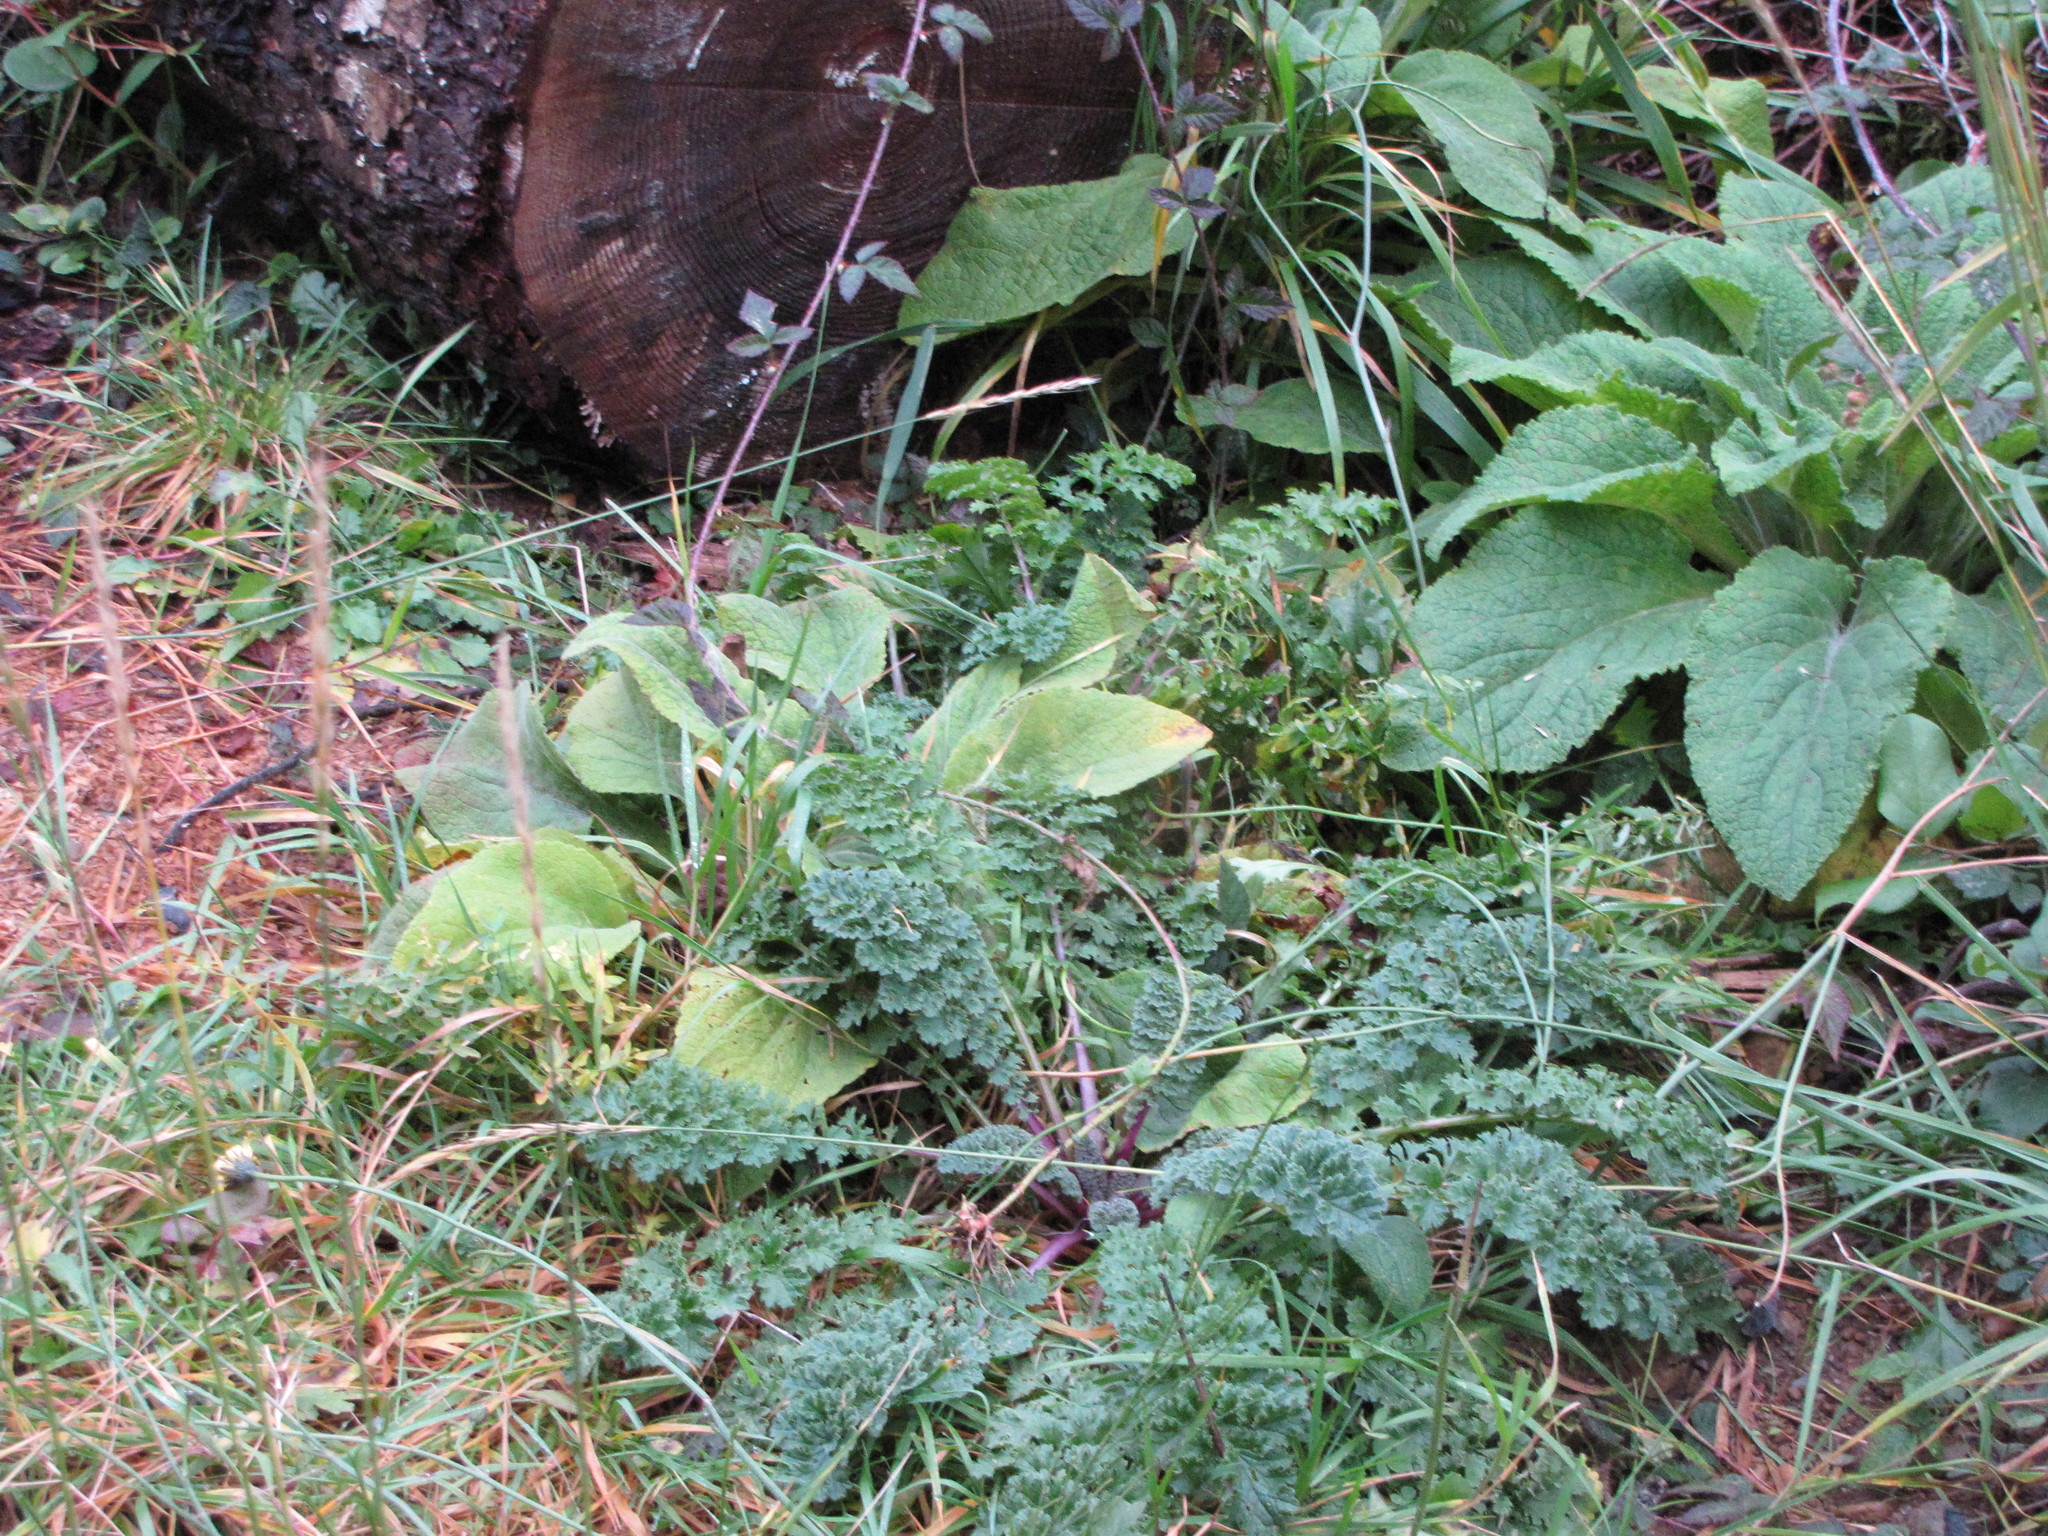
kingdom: Plantae
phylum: Tracheophyta
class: Magnoliopsida
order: Asterales
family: Asteraceae
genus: Jacobaea
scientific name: Jacobaea vulgaris
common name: Stinking willie
